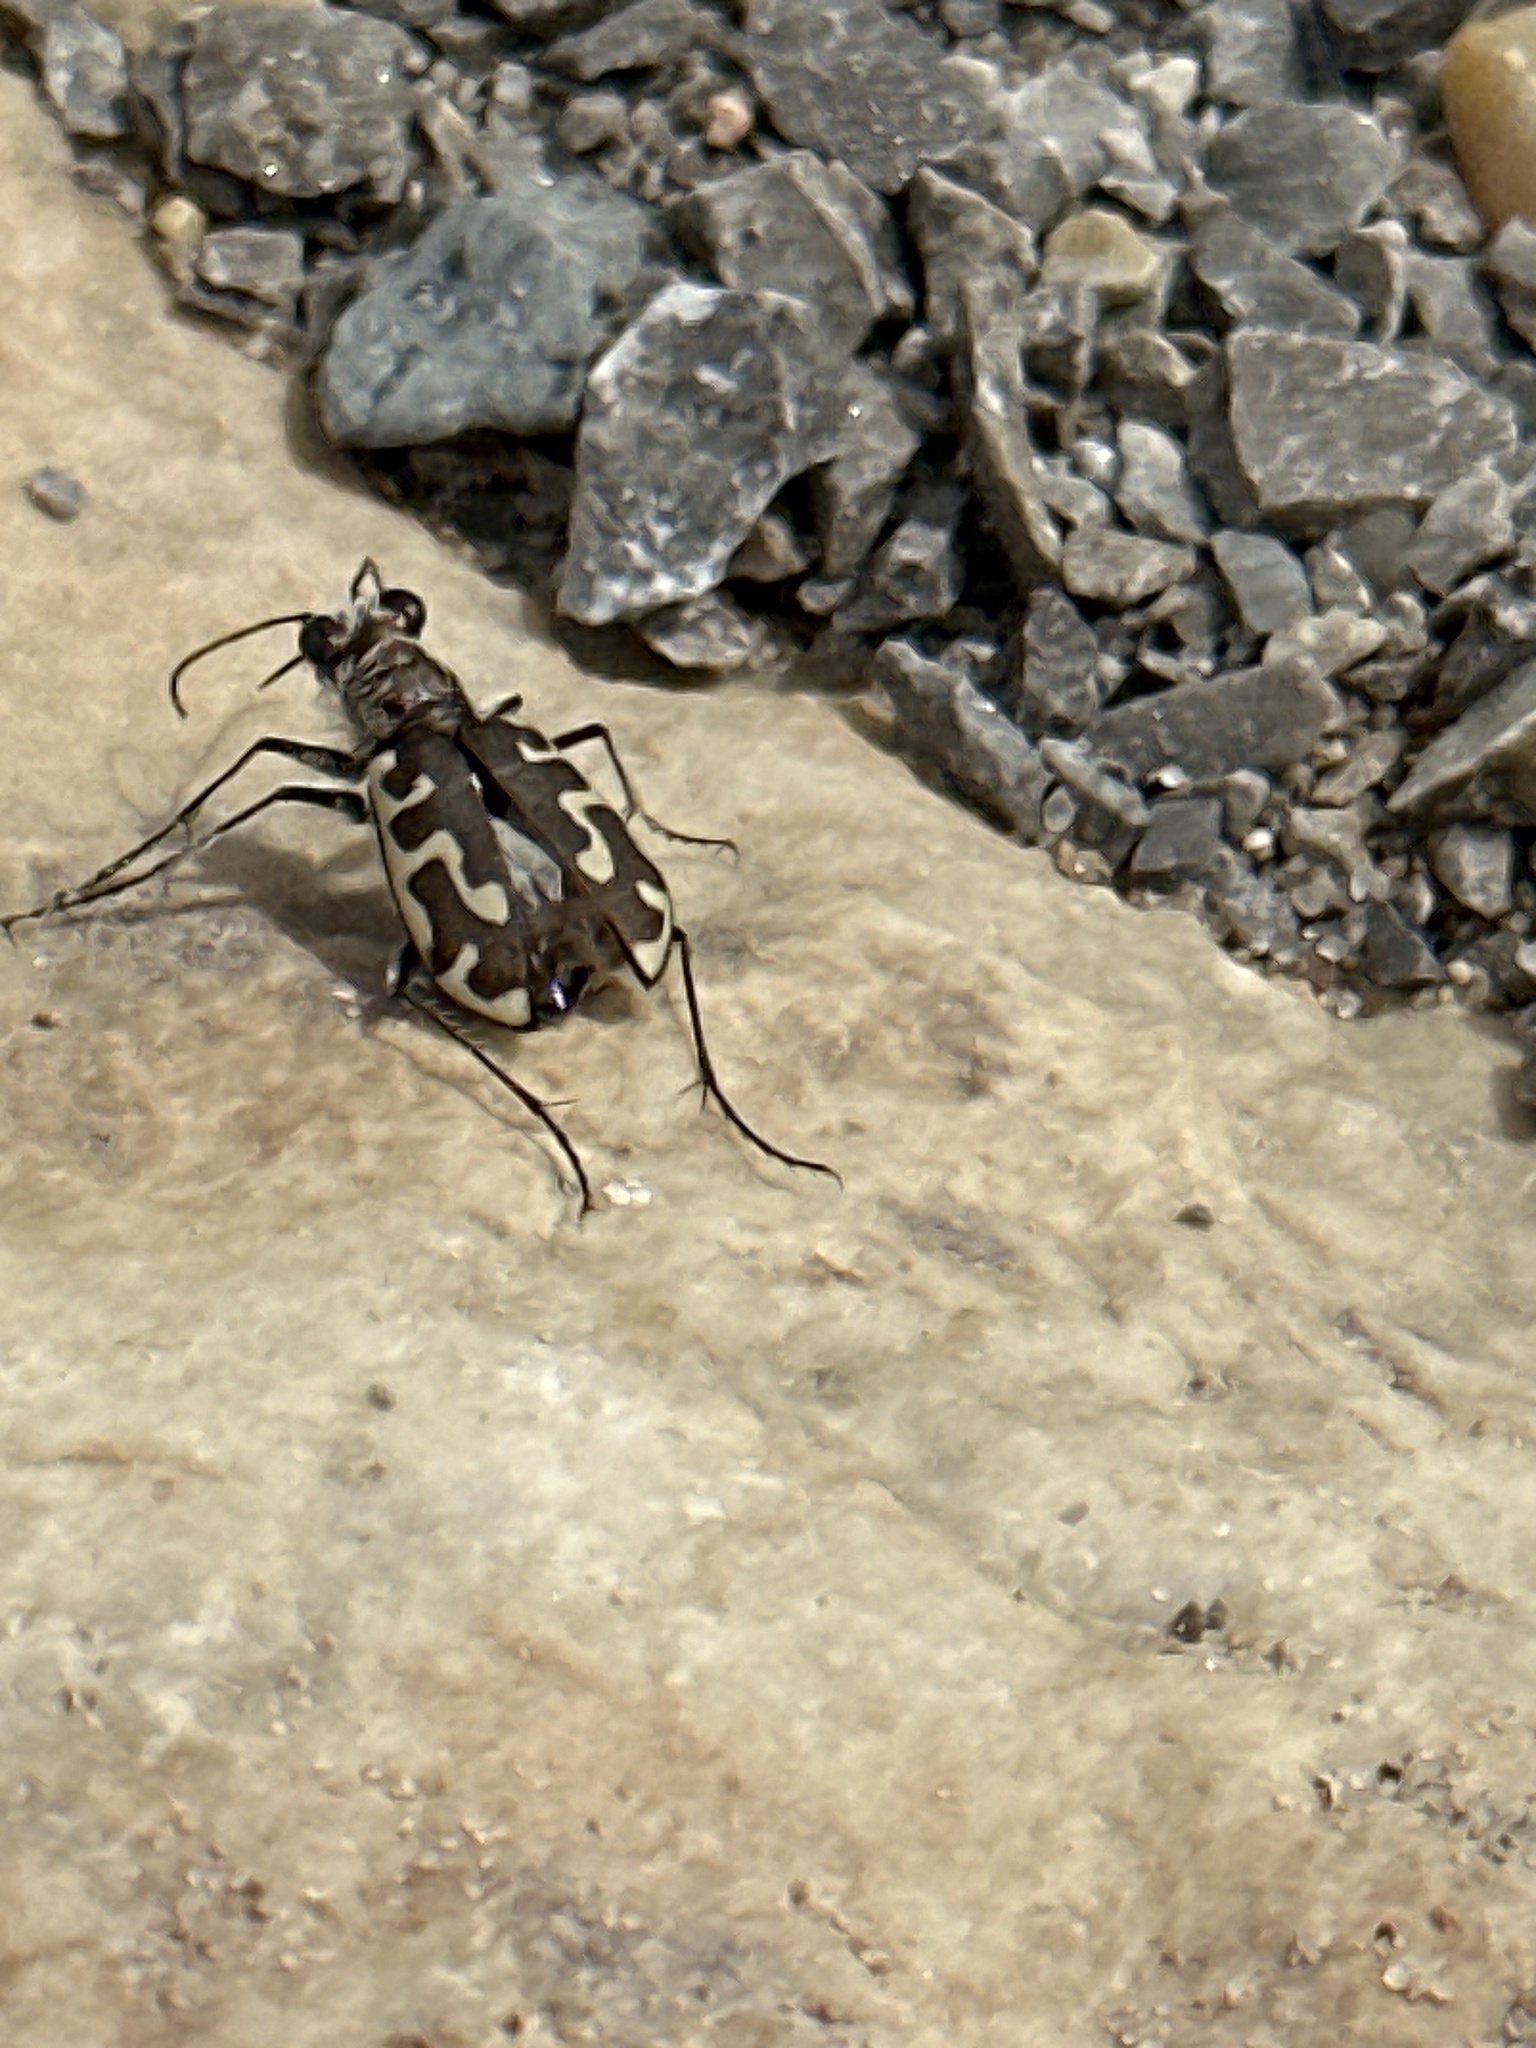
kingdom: Animalia
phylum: Arthropoda
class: Insecta
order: Coleoptera
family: Carabidae
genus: Cicindela
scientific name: Cicindela hirticollis
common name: Hairy-necked tiger beetle
